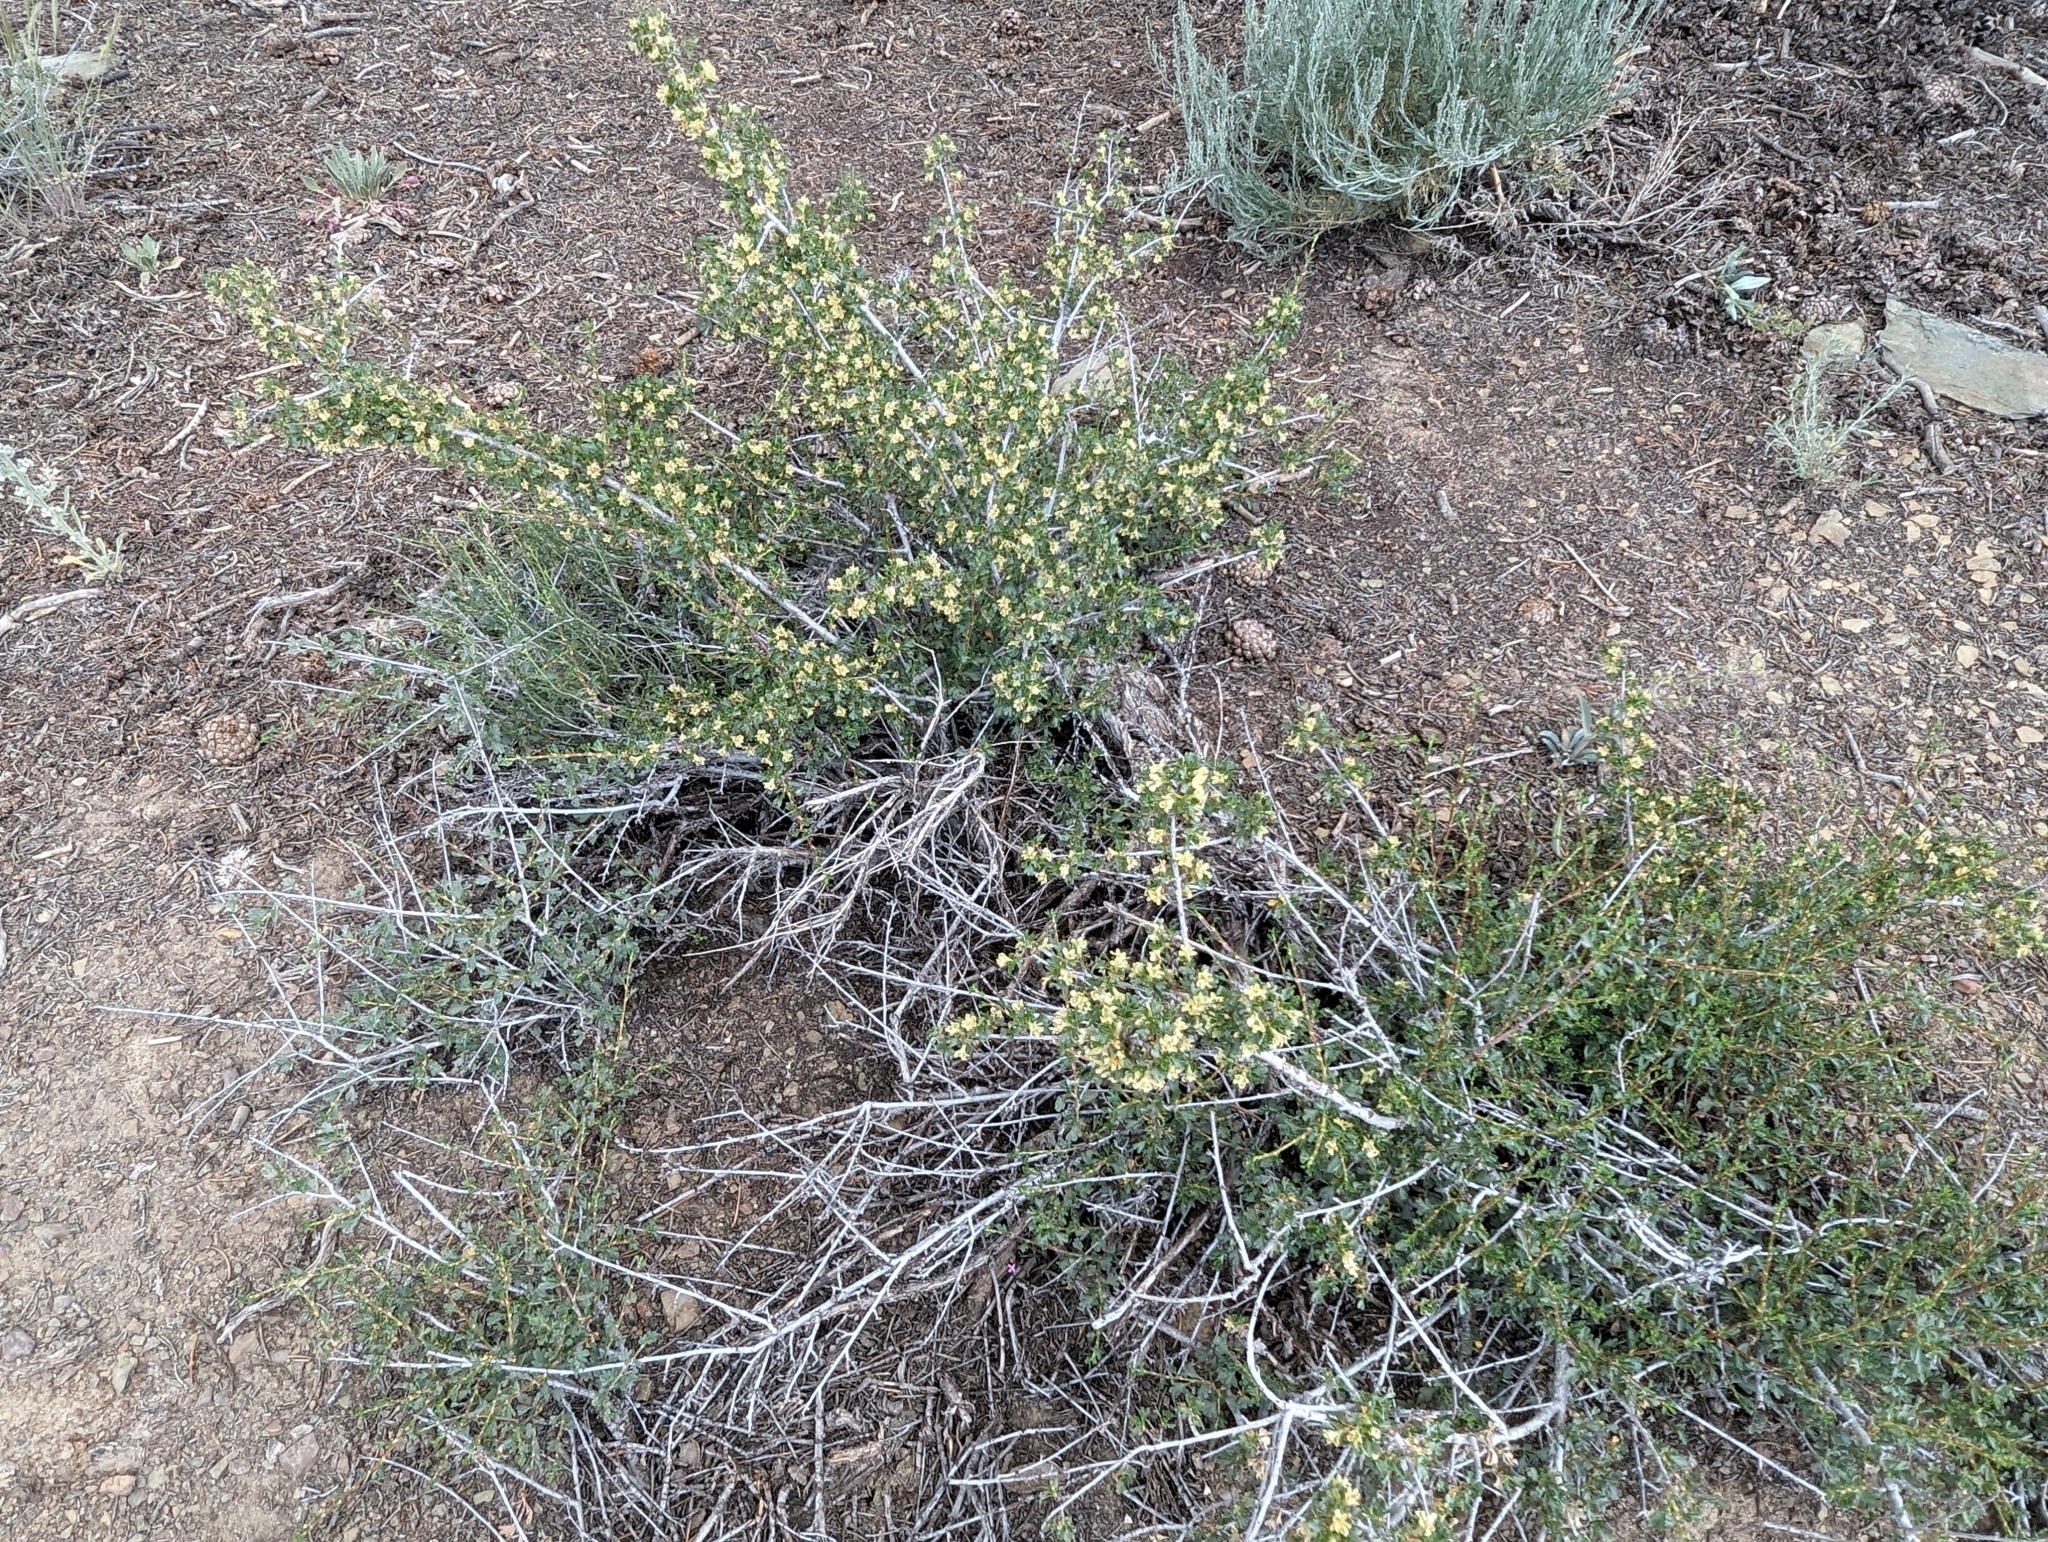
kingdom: Plantae
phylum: Tracheophyta
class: Magnoliopsida
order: Rosales
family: Rosaceae
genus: Purshia
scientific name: Purshia tridentata
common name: Antelope bitterbrush
